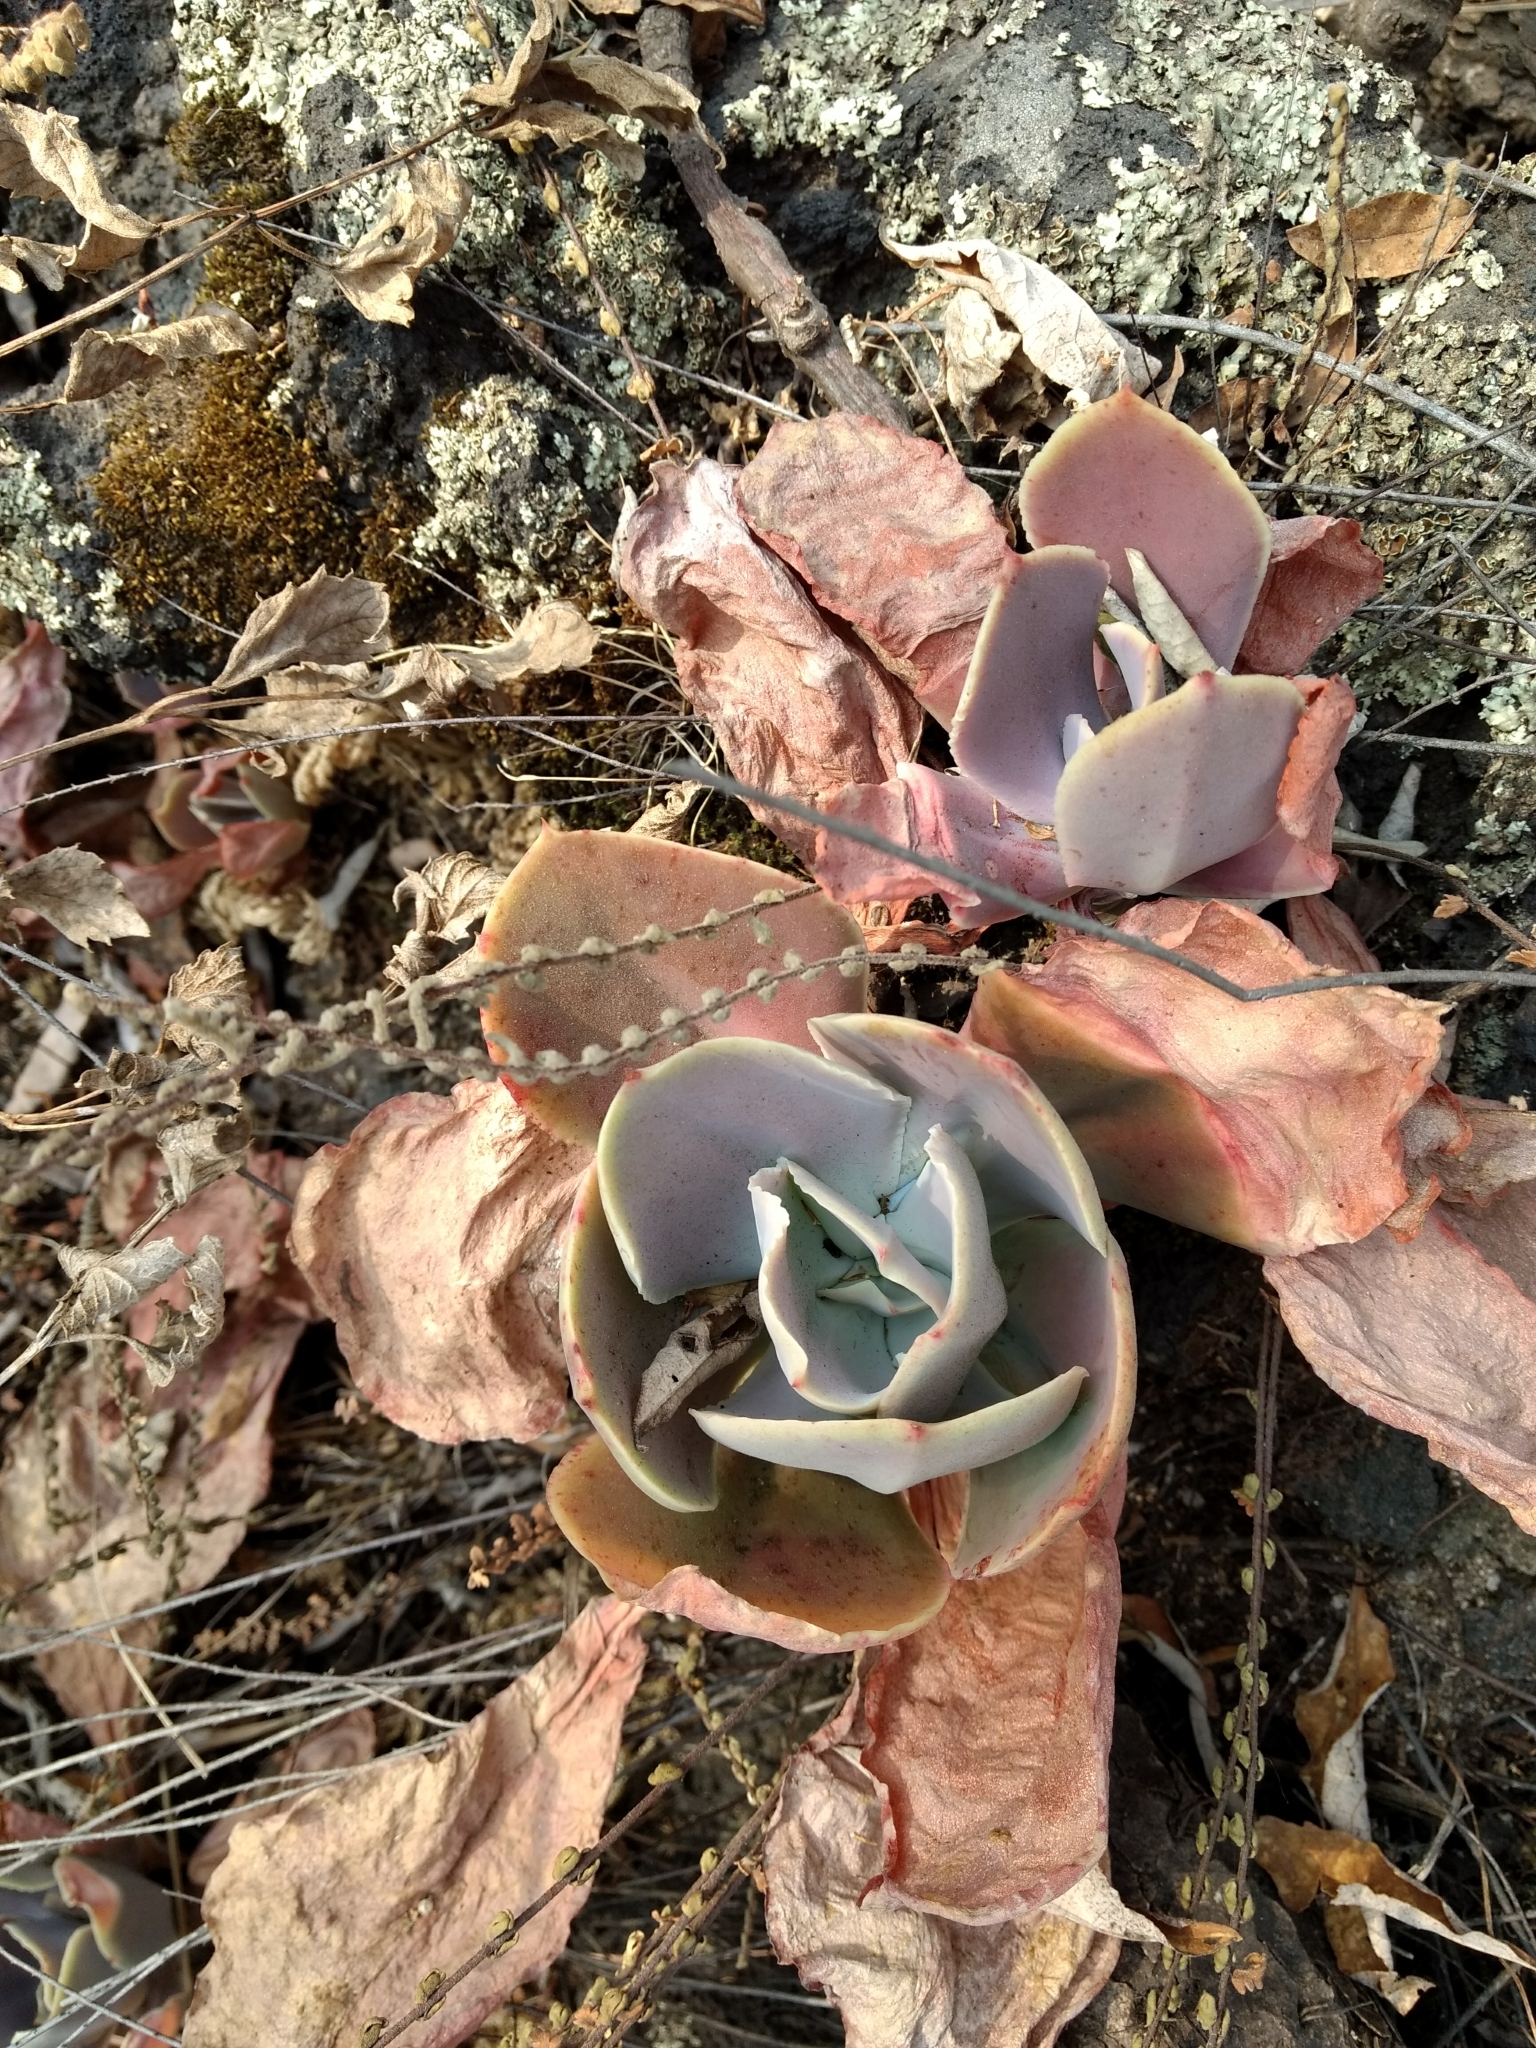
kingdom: Plantae
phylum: Tracheophyta
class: Magnoliopsida
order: Saxifragales
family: Crassulaceae
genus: Echeveria
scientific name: Echeveria gibbiflora
